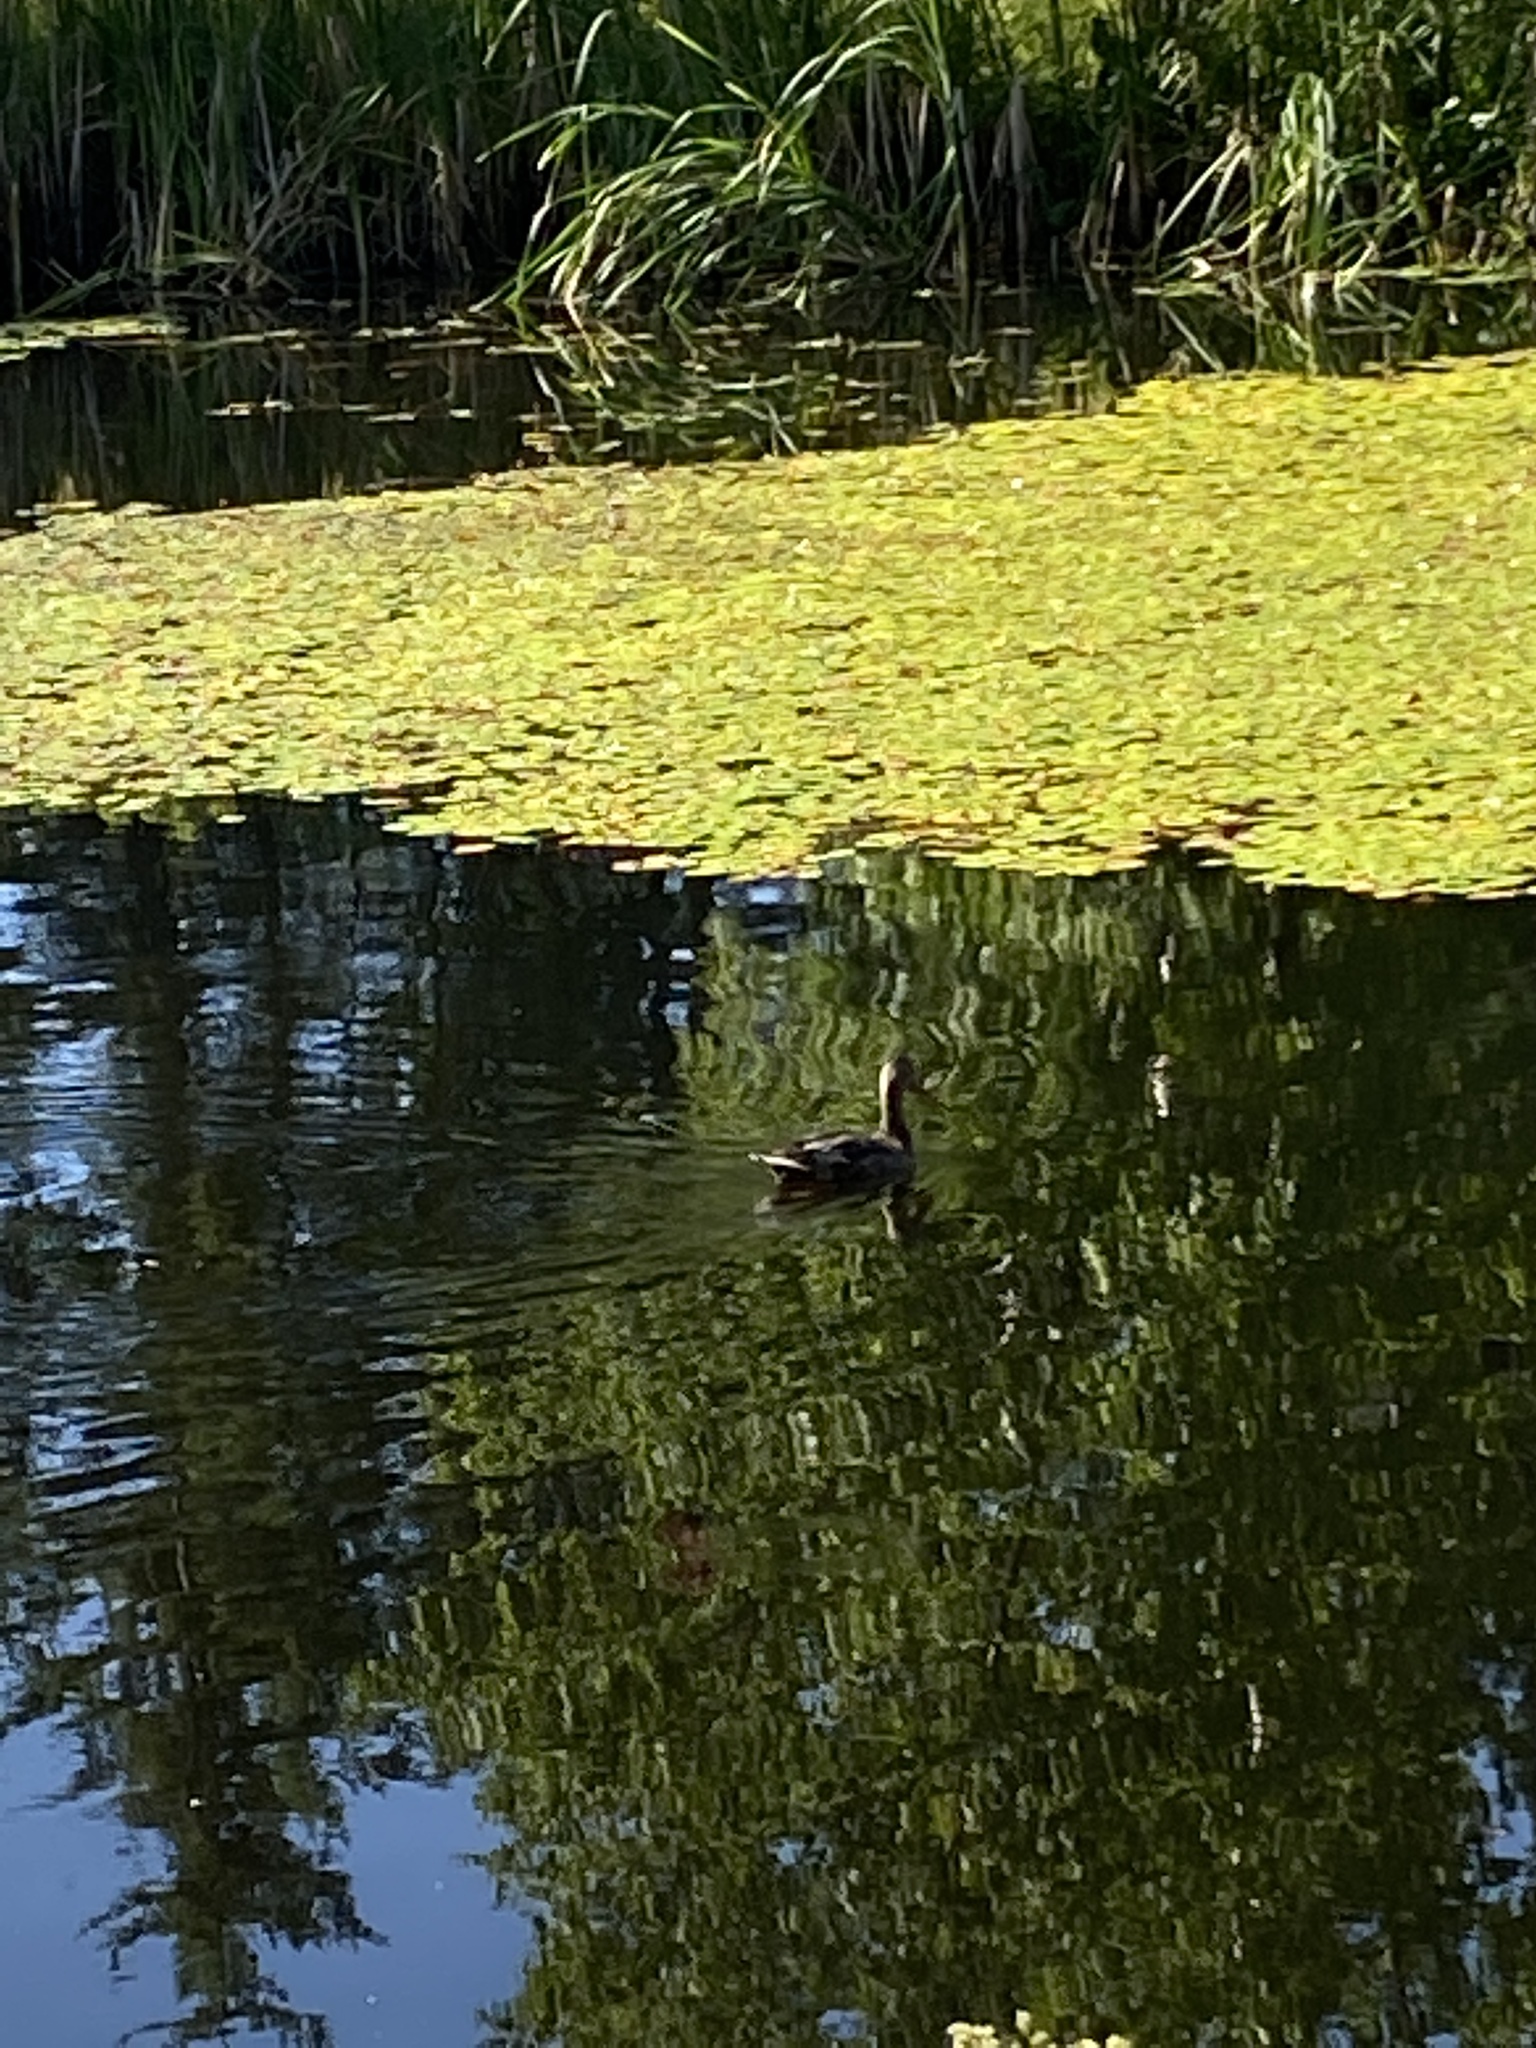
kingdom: Animalia
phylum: Chordata
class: Aves
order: Anseriformes
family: Anatidae
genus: Anas
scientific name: Anas platyrhynchos
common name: Mallard
